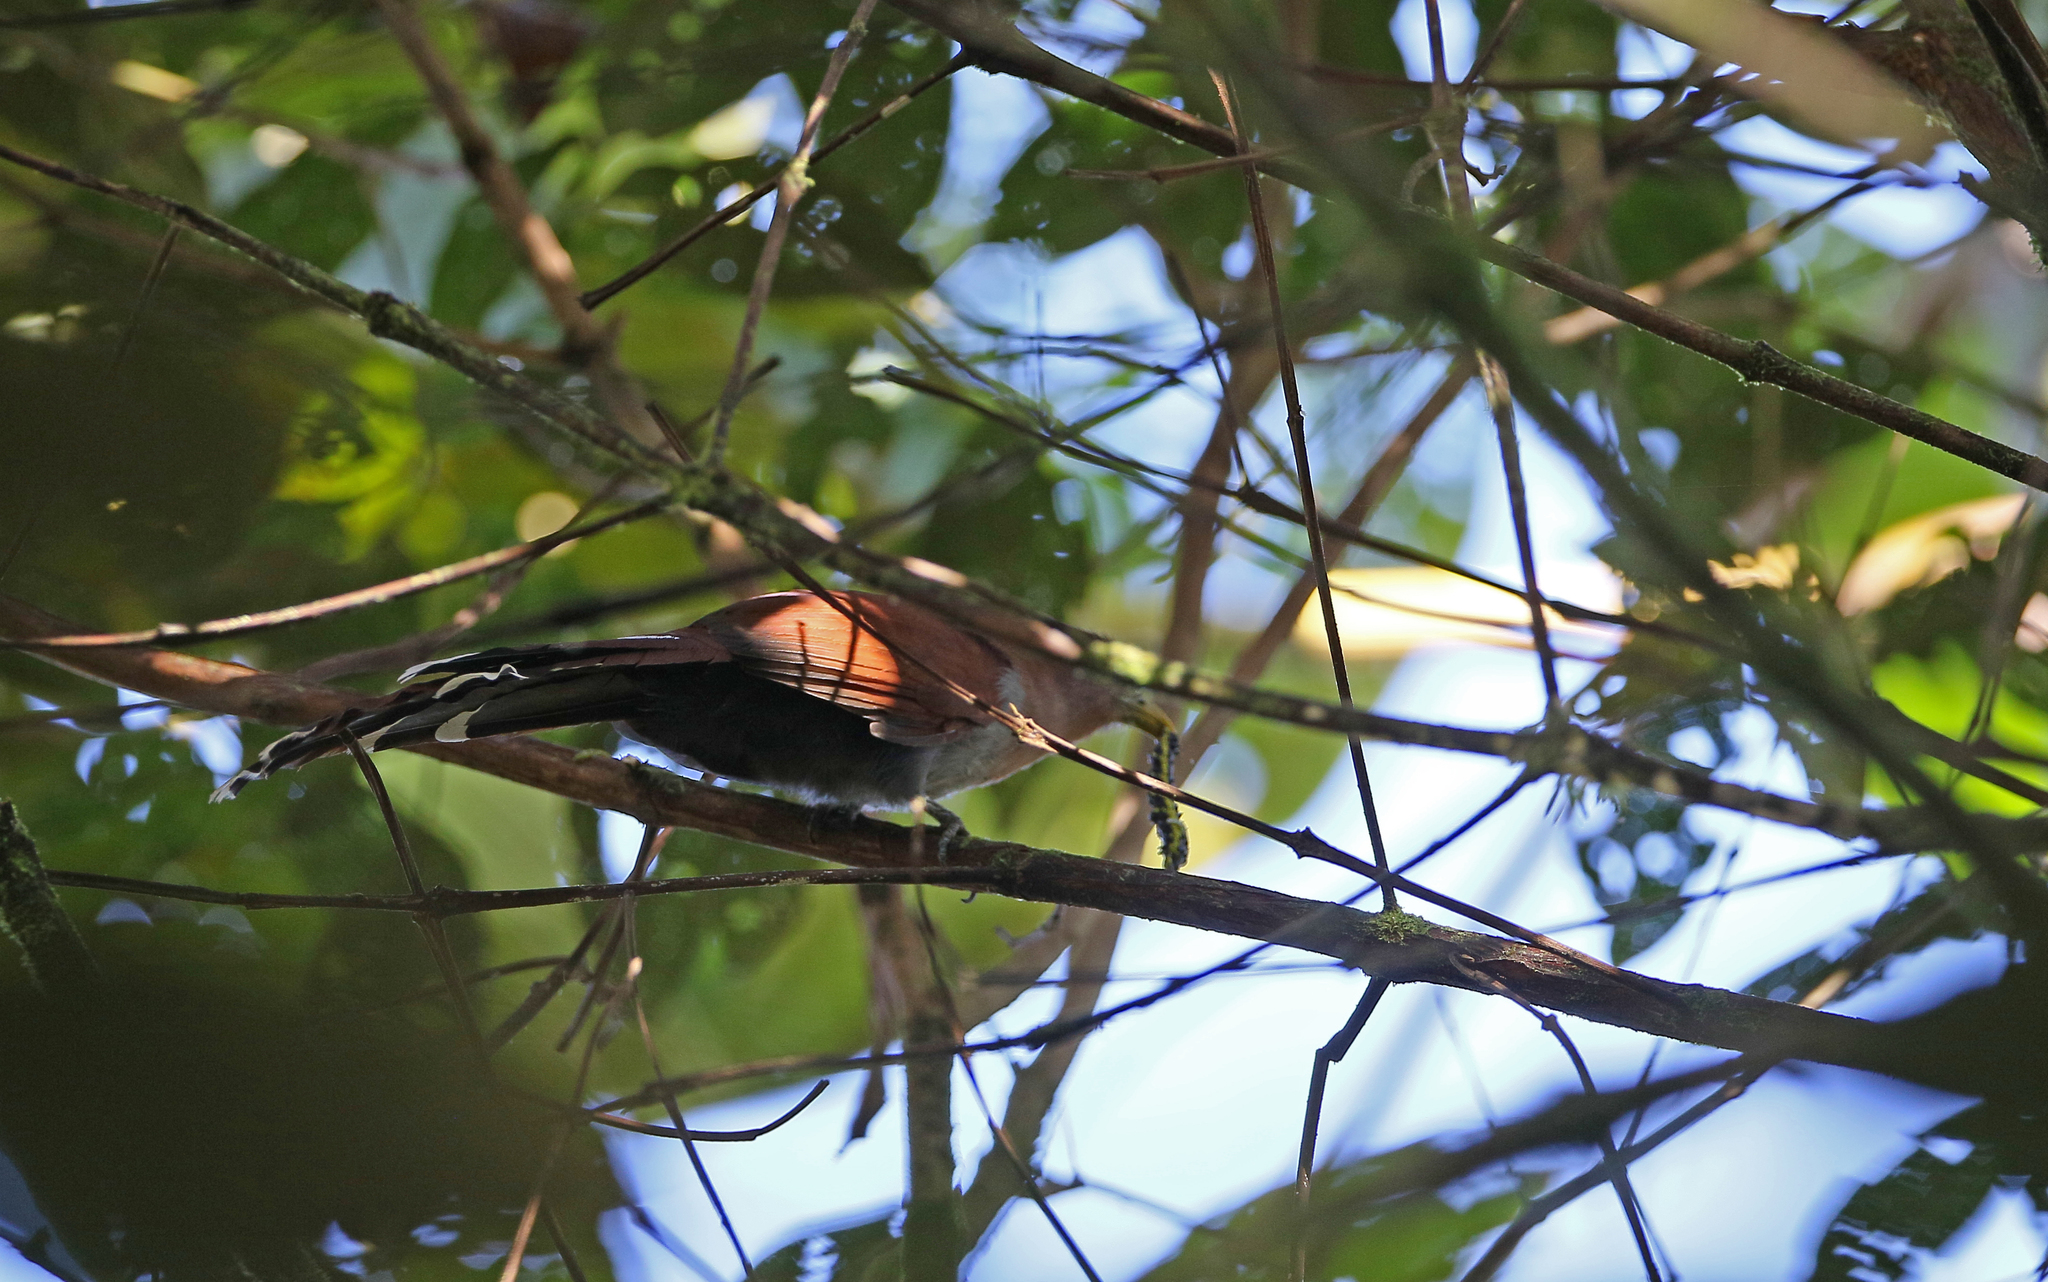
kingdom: Animalia
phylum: Chordata
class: Aves
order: Cuculiformes
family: Cuculidae
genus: Piaya
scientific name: Piaya cayana
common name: Squirrel cuckoo
